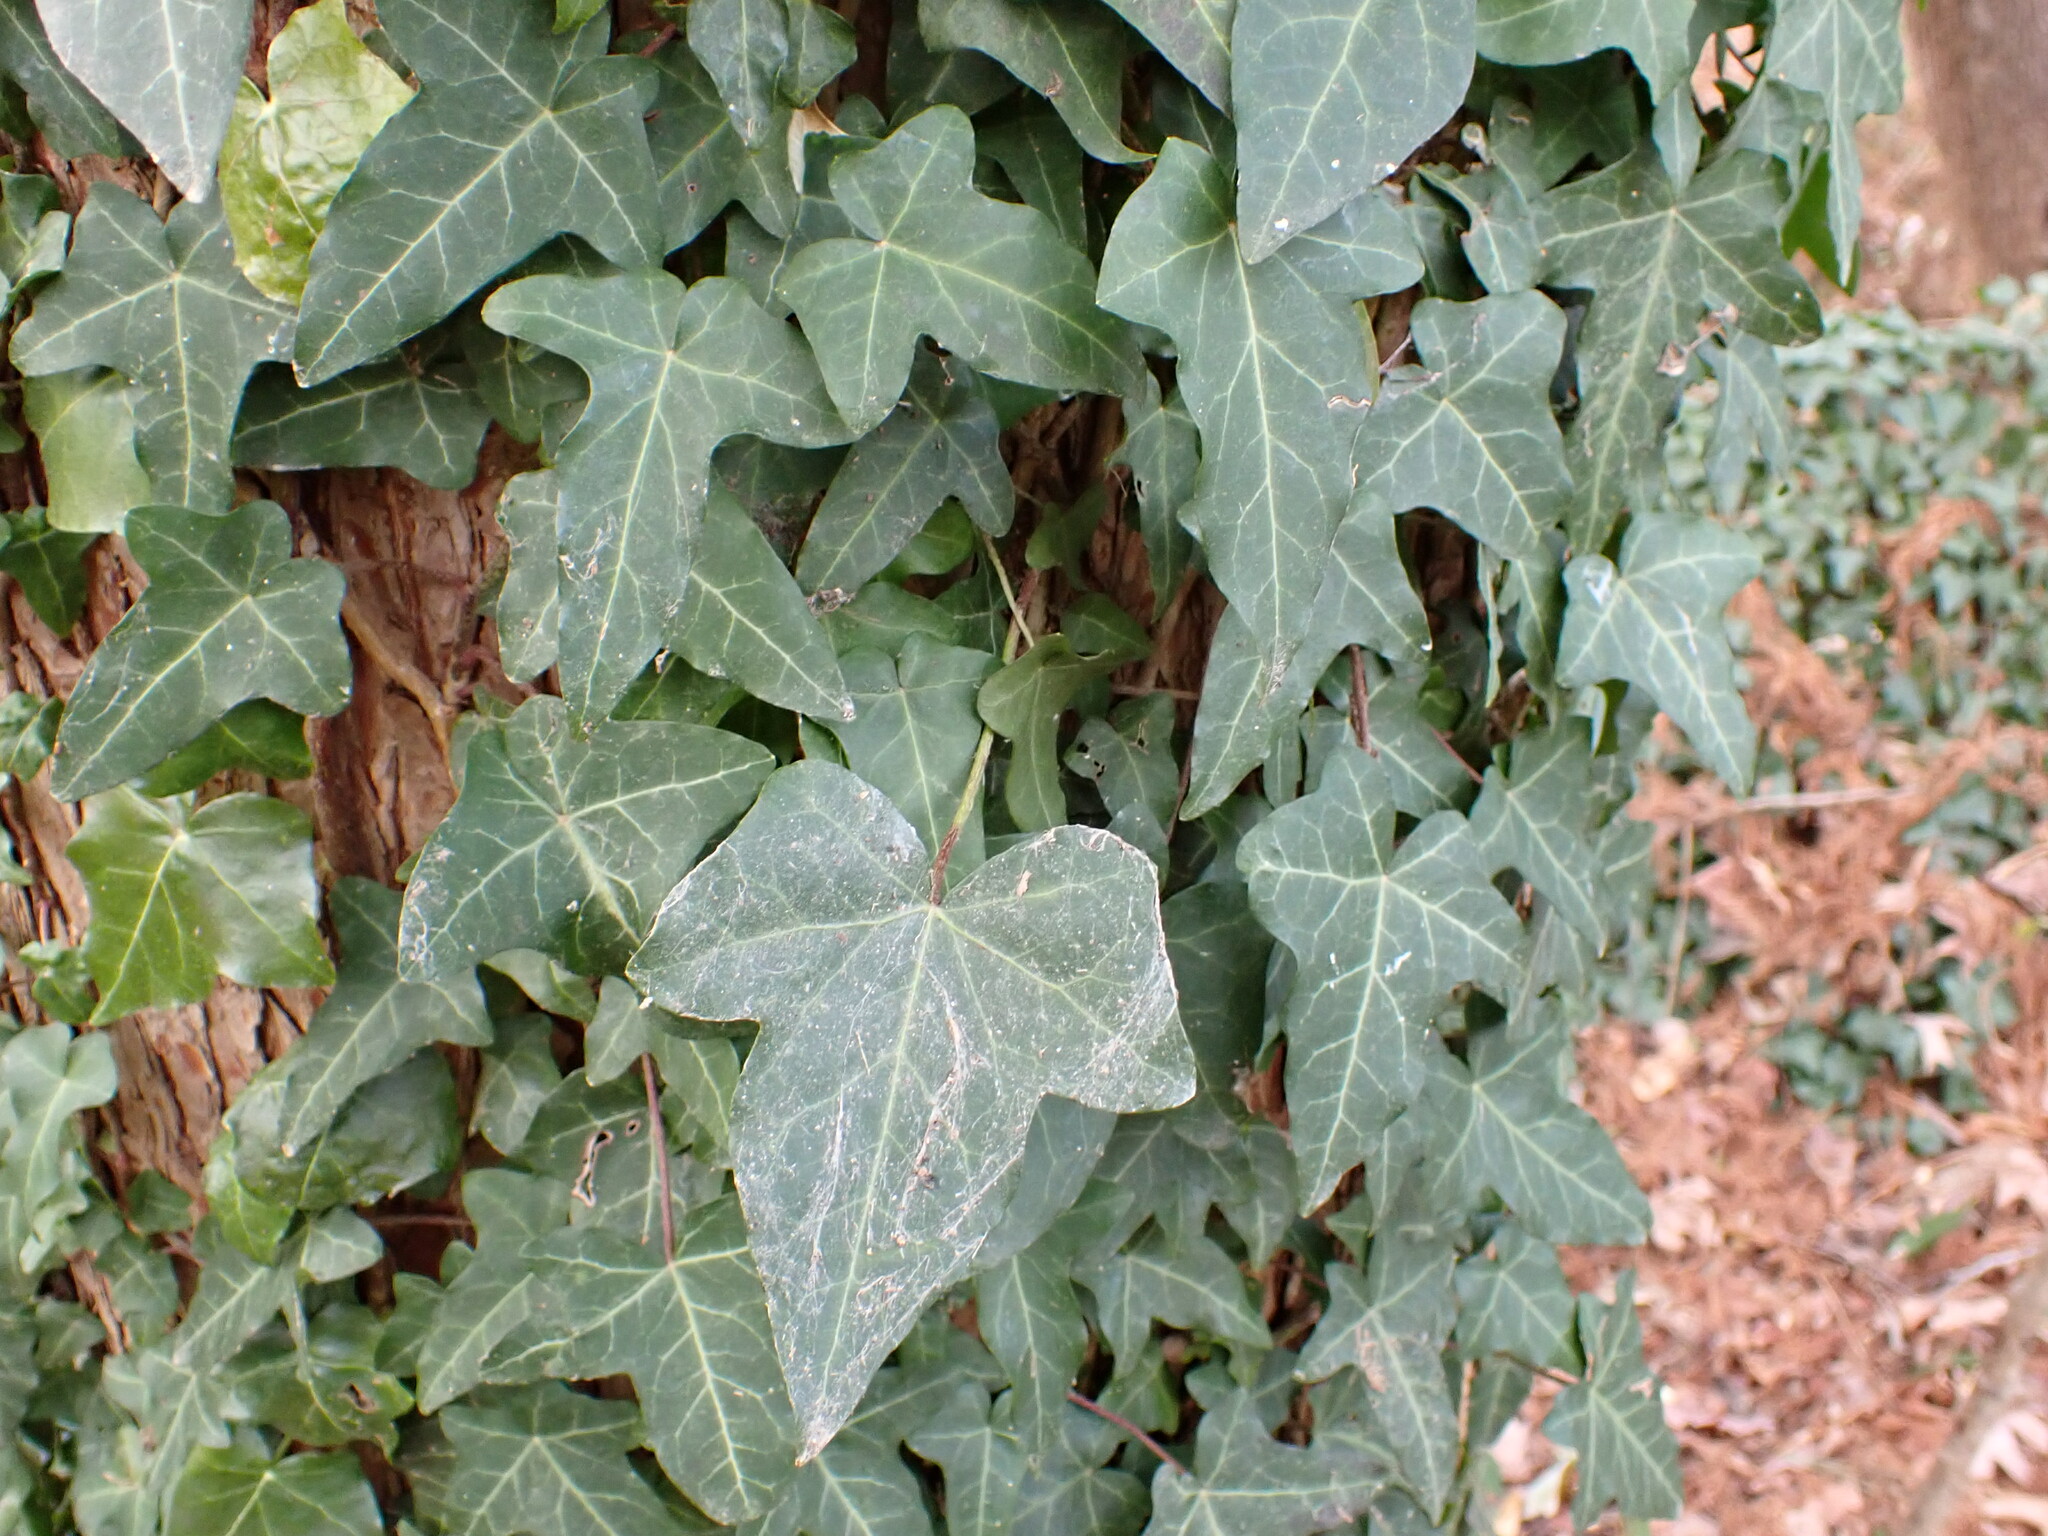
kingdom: Plantae
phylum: Tracheophyta
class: Magnoliopsida
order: Apiales
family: Araliaceae
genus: Hedera
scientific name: Hedera helix
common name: Ivy
